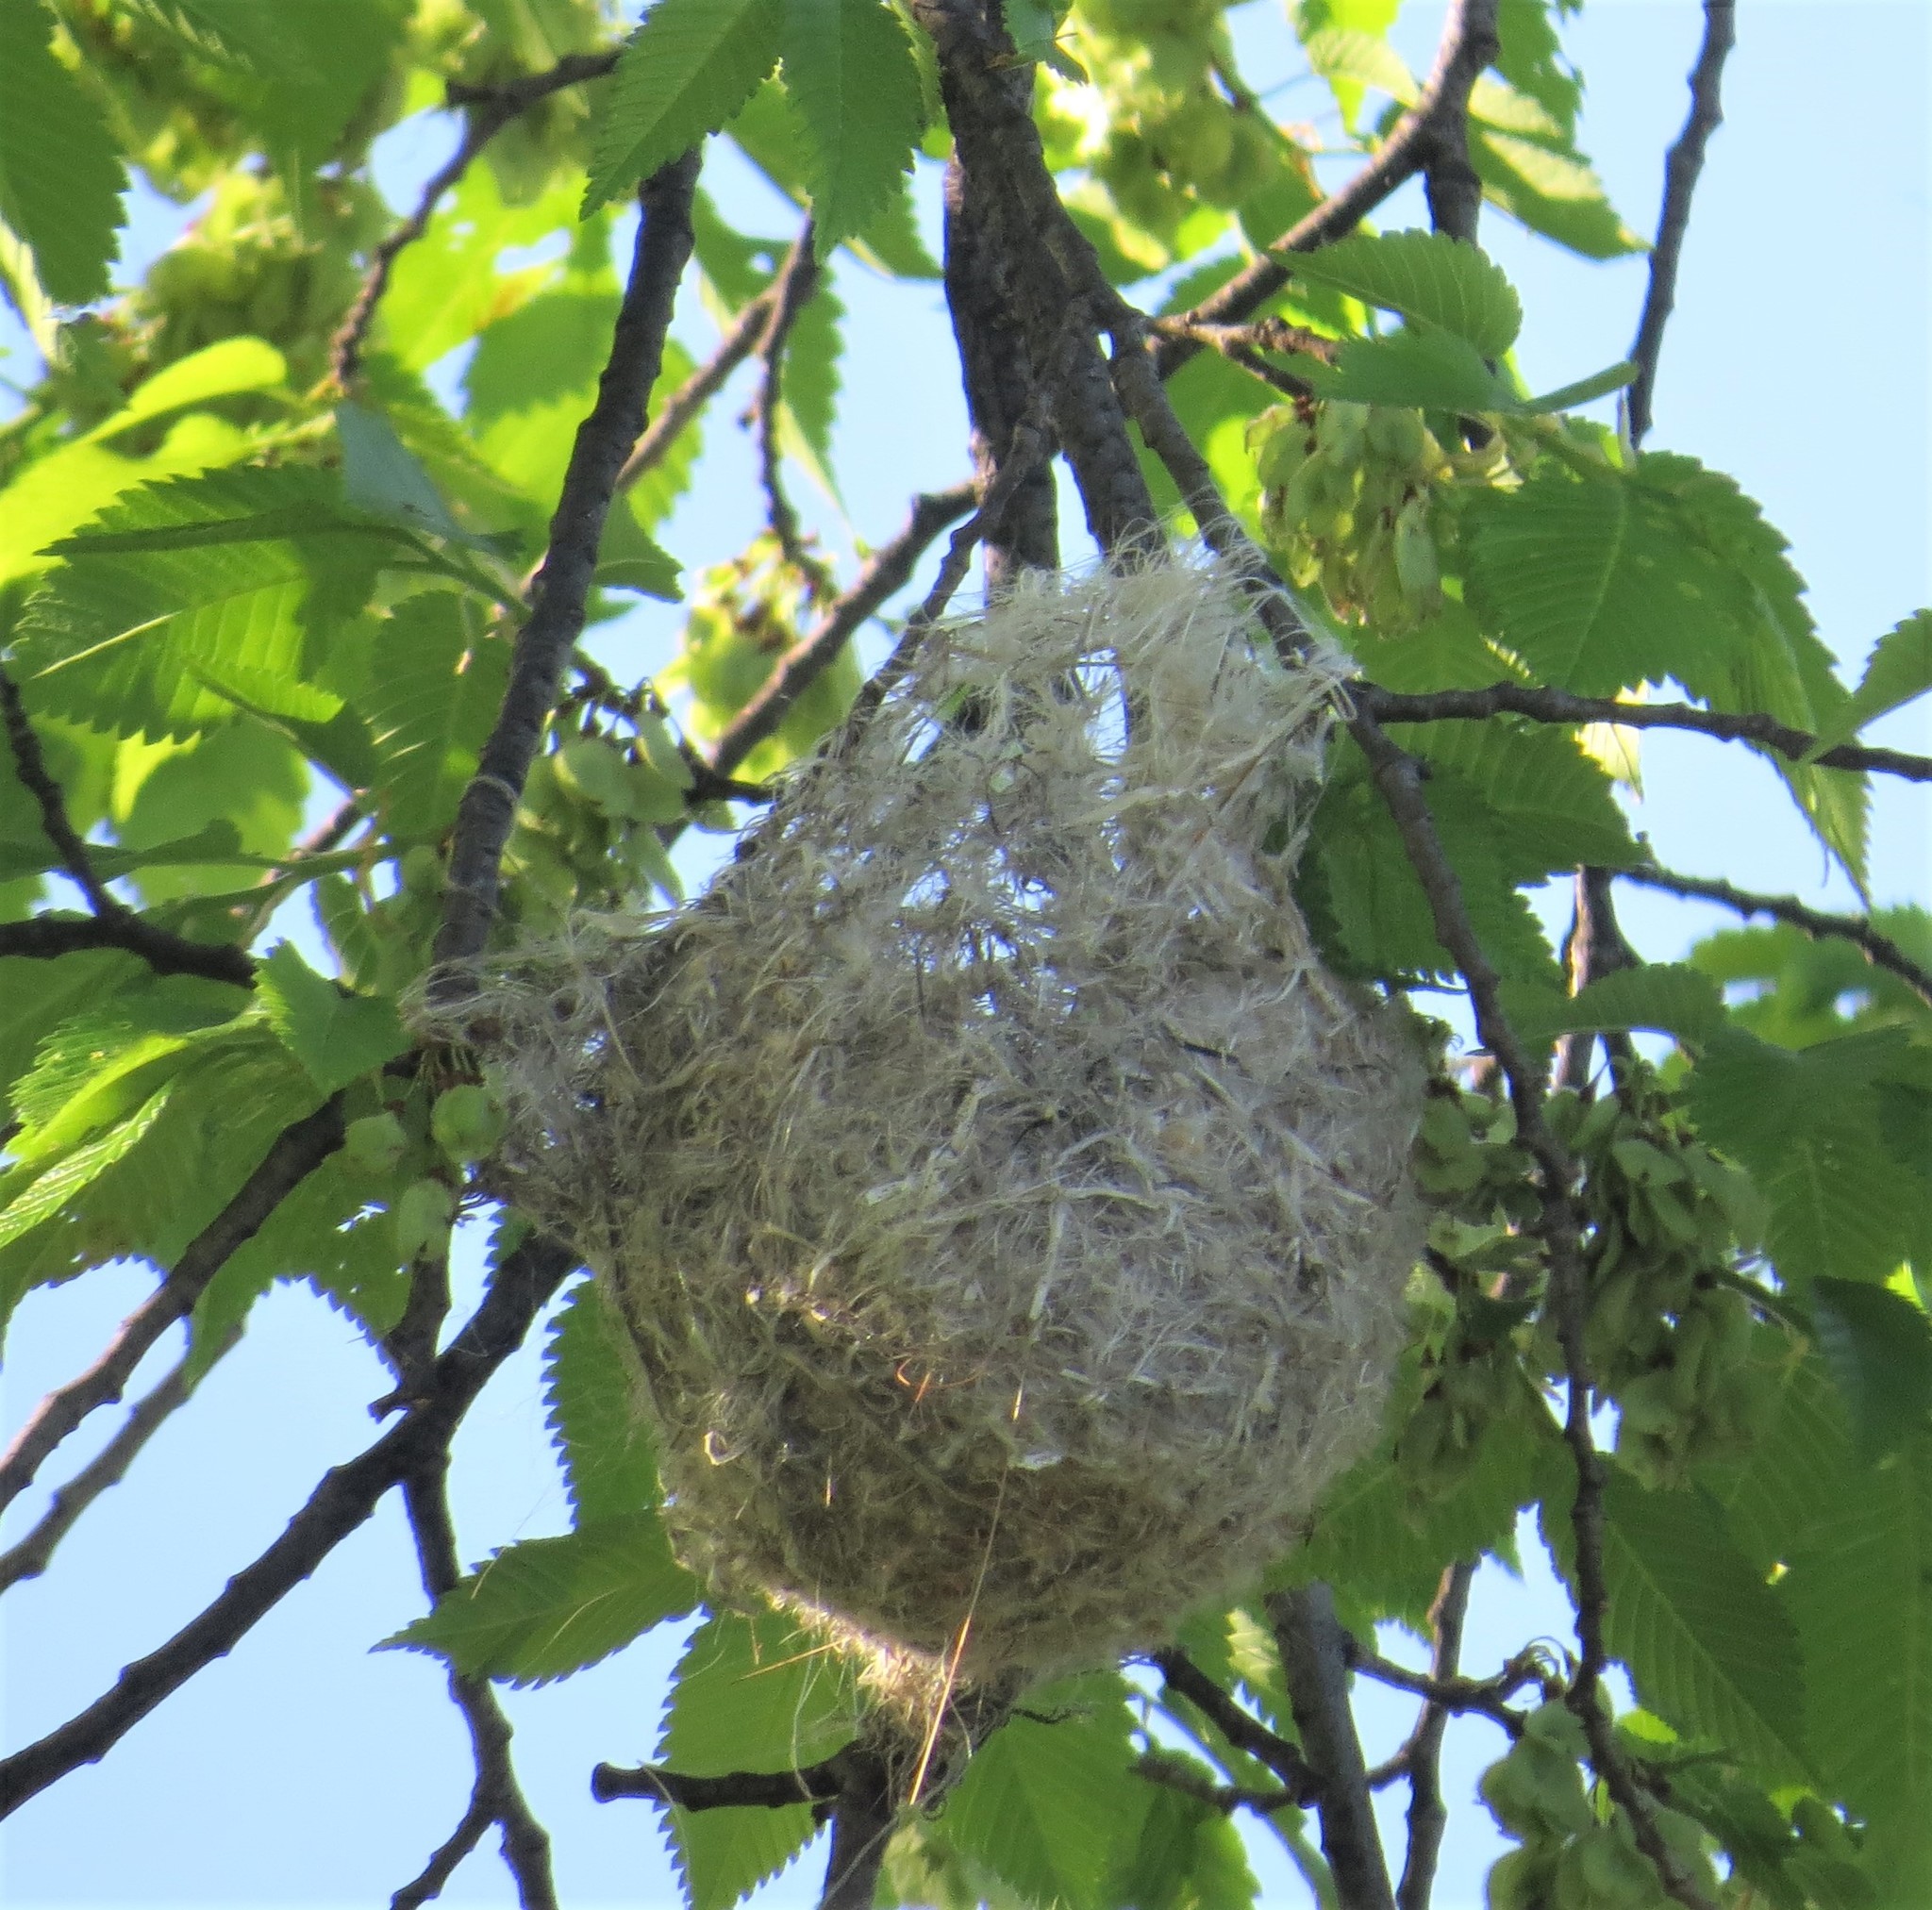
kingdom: Animalia
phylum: Chordata
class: Aves
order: Passeriformes
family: Icteridae
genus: Icterus
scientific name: Icterus galbula
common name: Baltimore oriole
